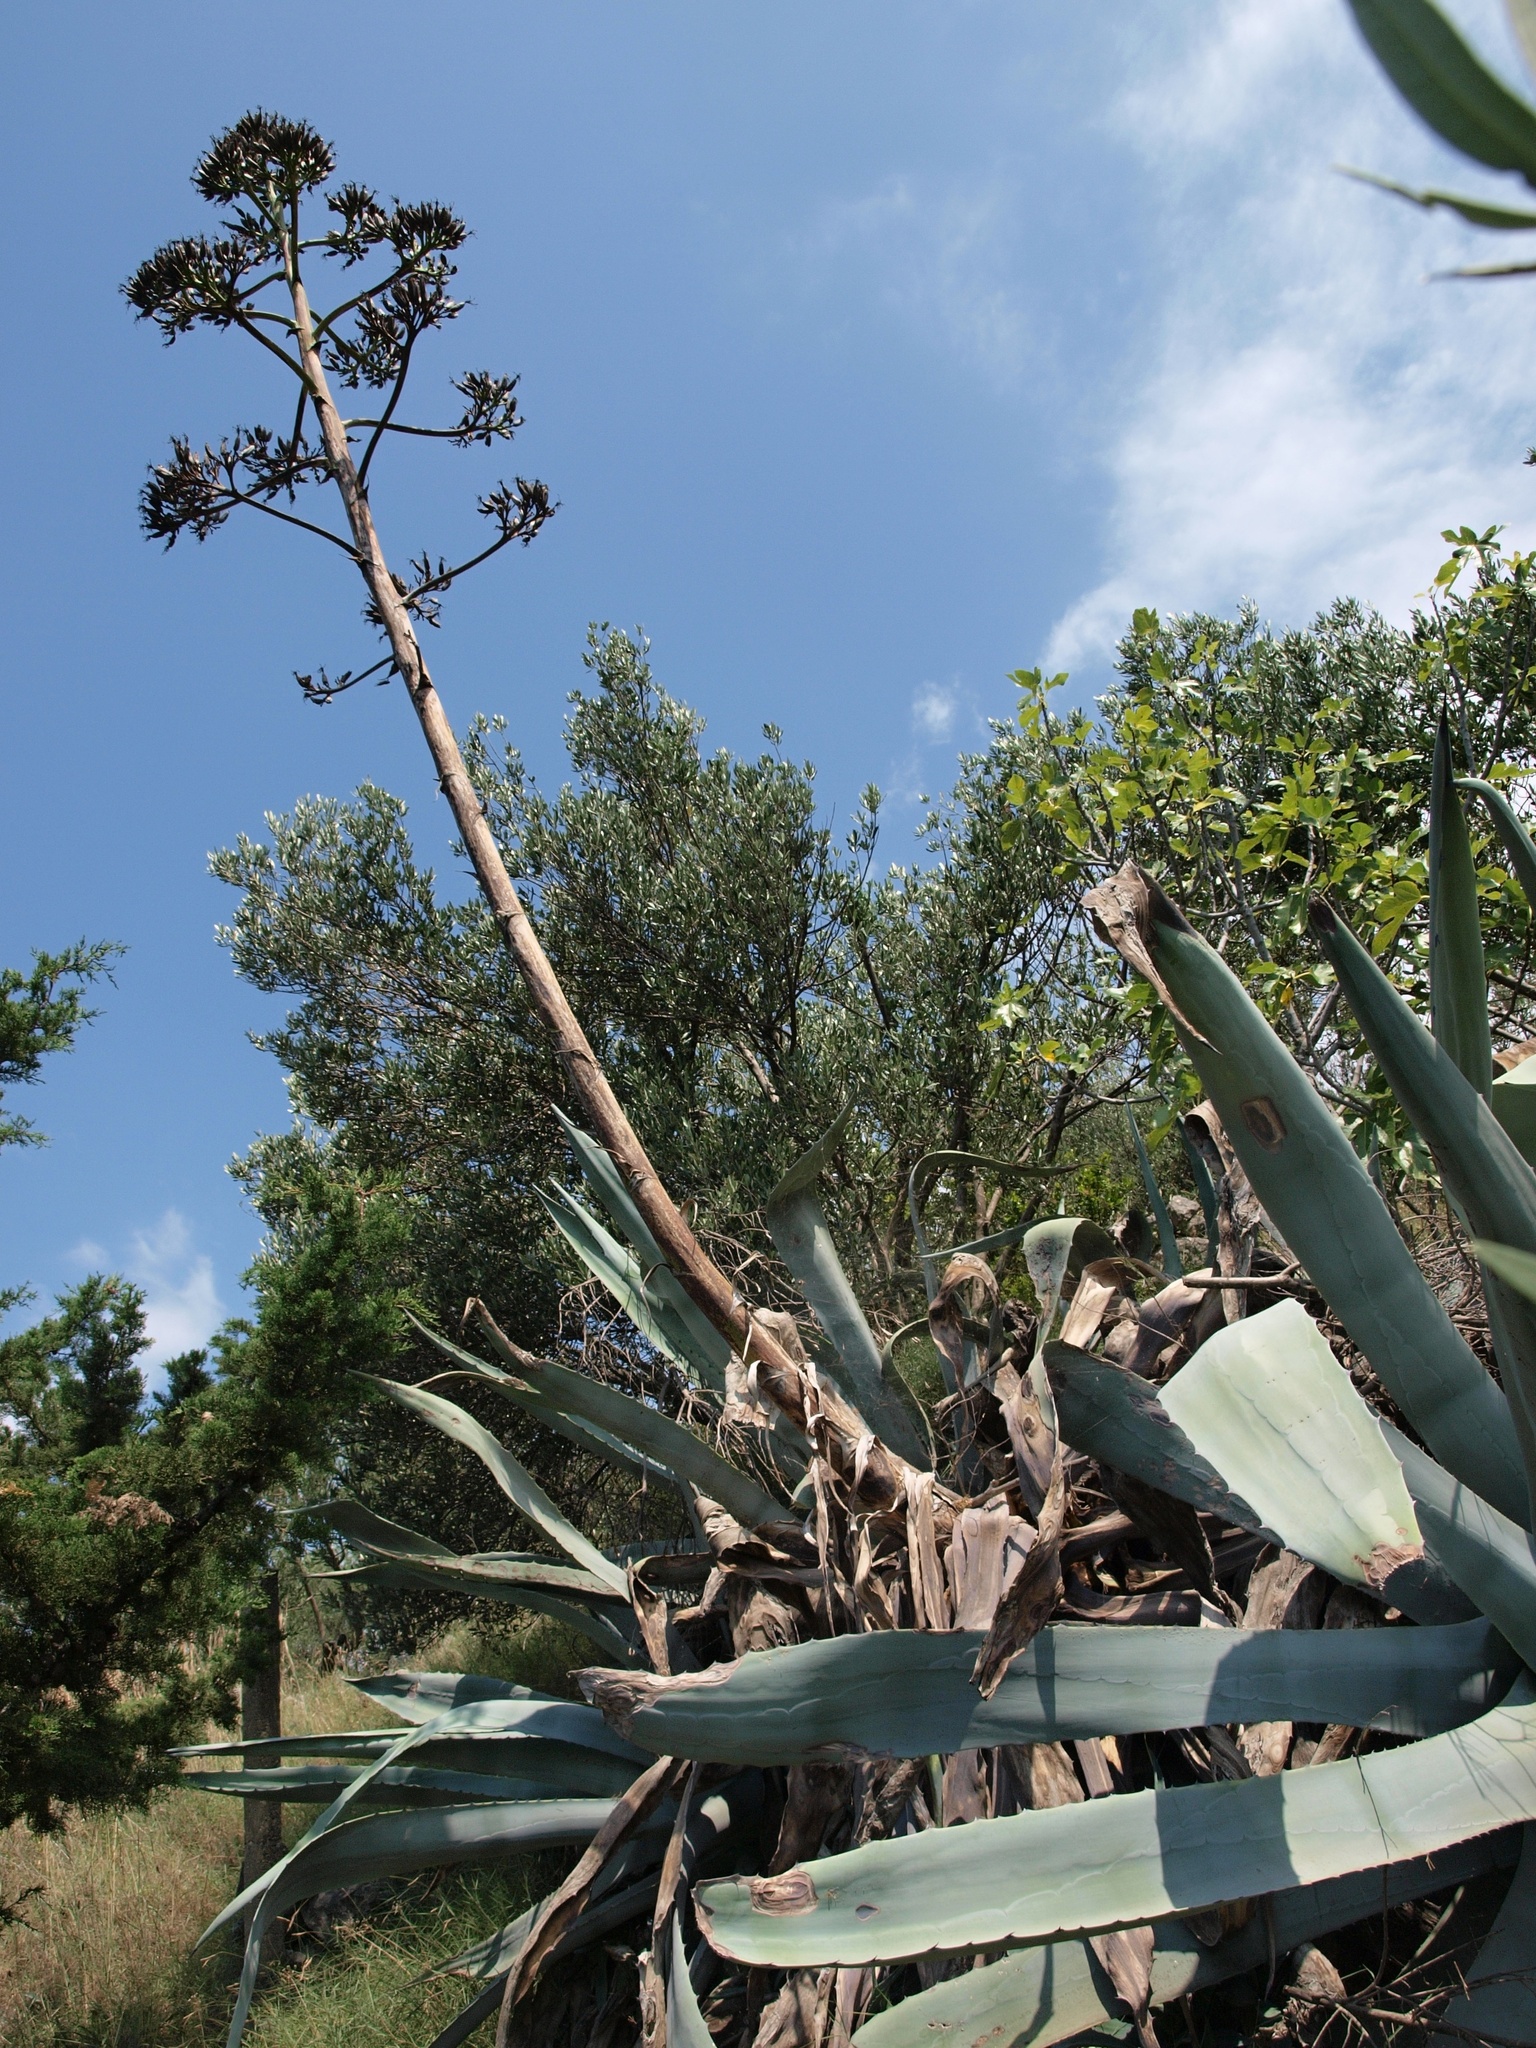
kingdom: Plantae
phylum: Tracheophyta
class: Liliopsida
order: Asparagales
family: Asparagaceae
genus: Agave
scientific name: Agave americana
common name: Centuryplant
